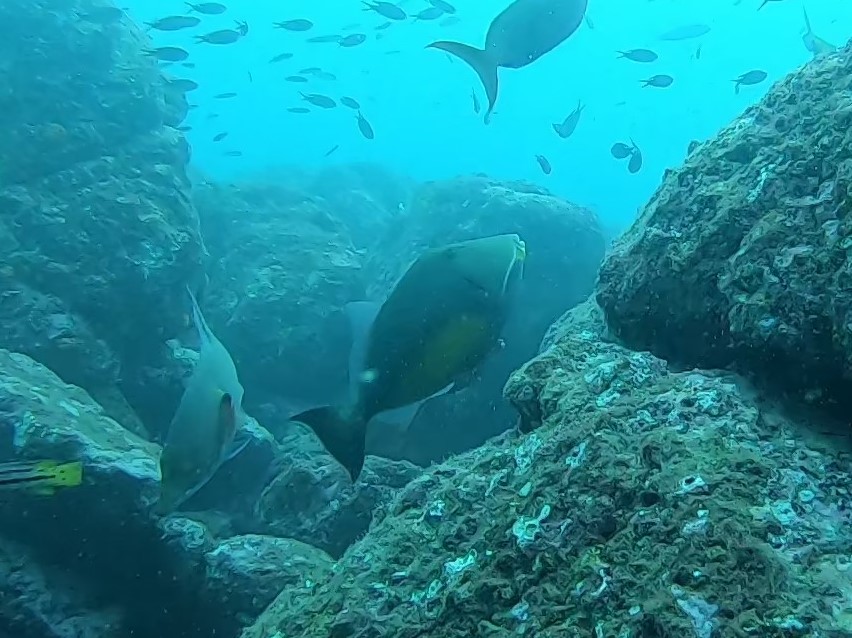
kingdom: Animalia
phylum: Chordata
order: Tetraodontiformes
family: Balistidae
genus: Sufflamen
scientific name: Sufflamen verres
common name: Orangeside triggerfish
